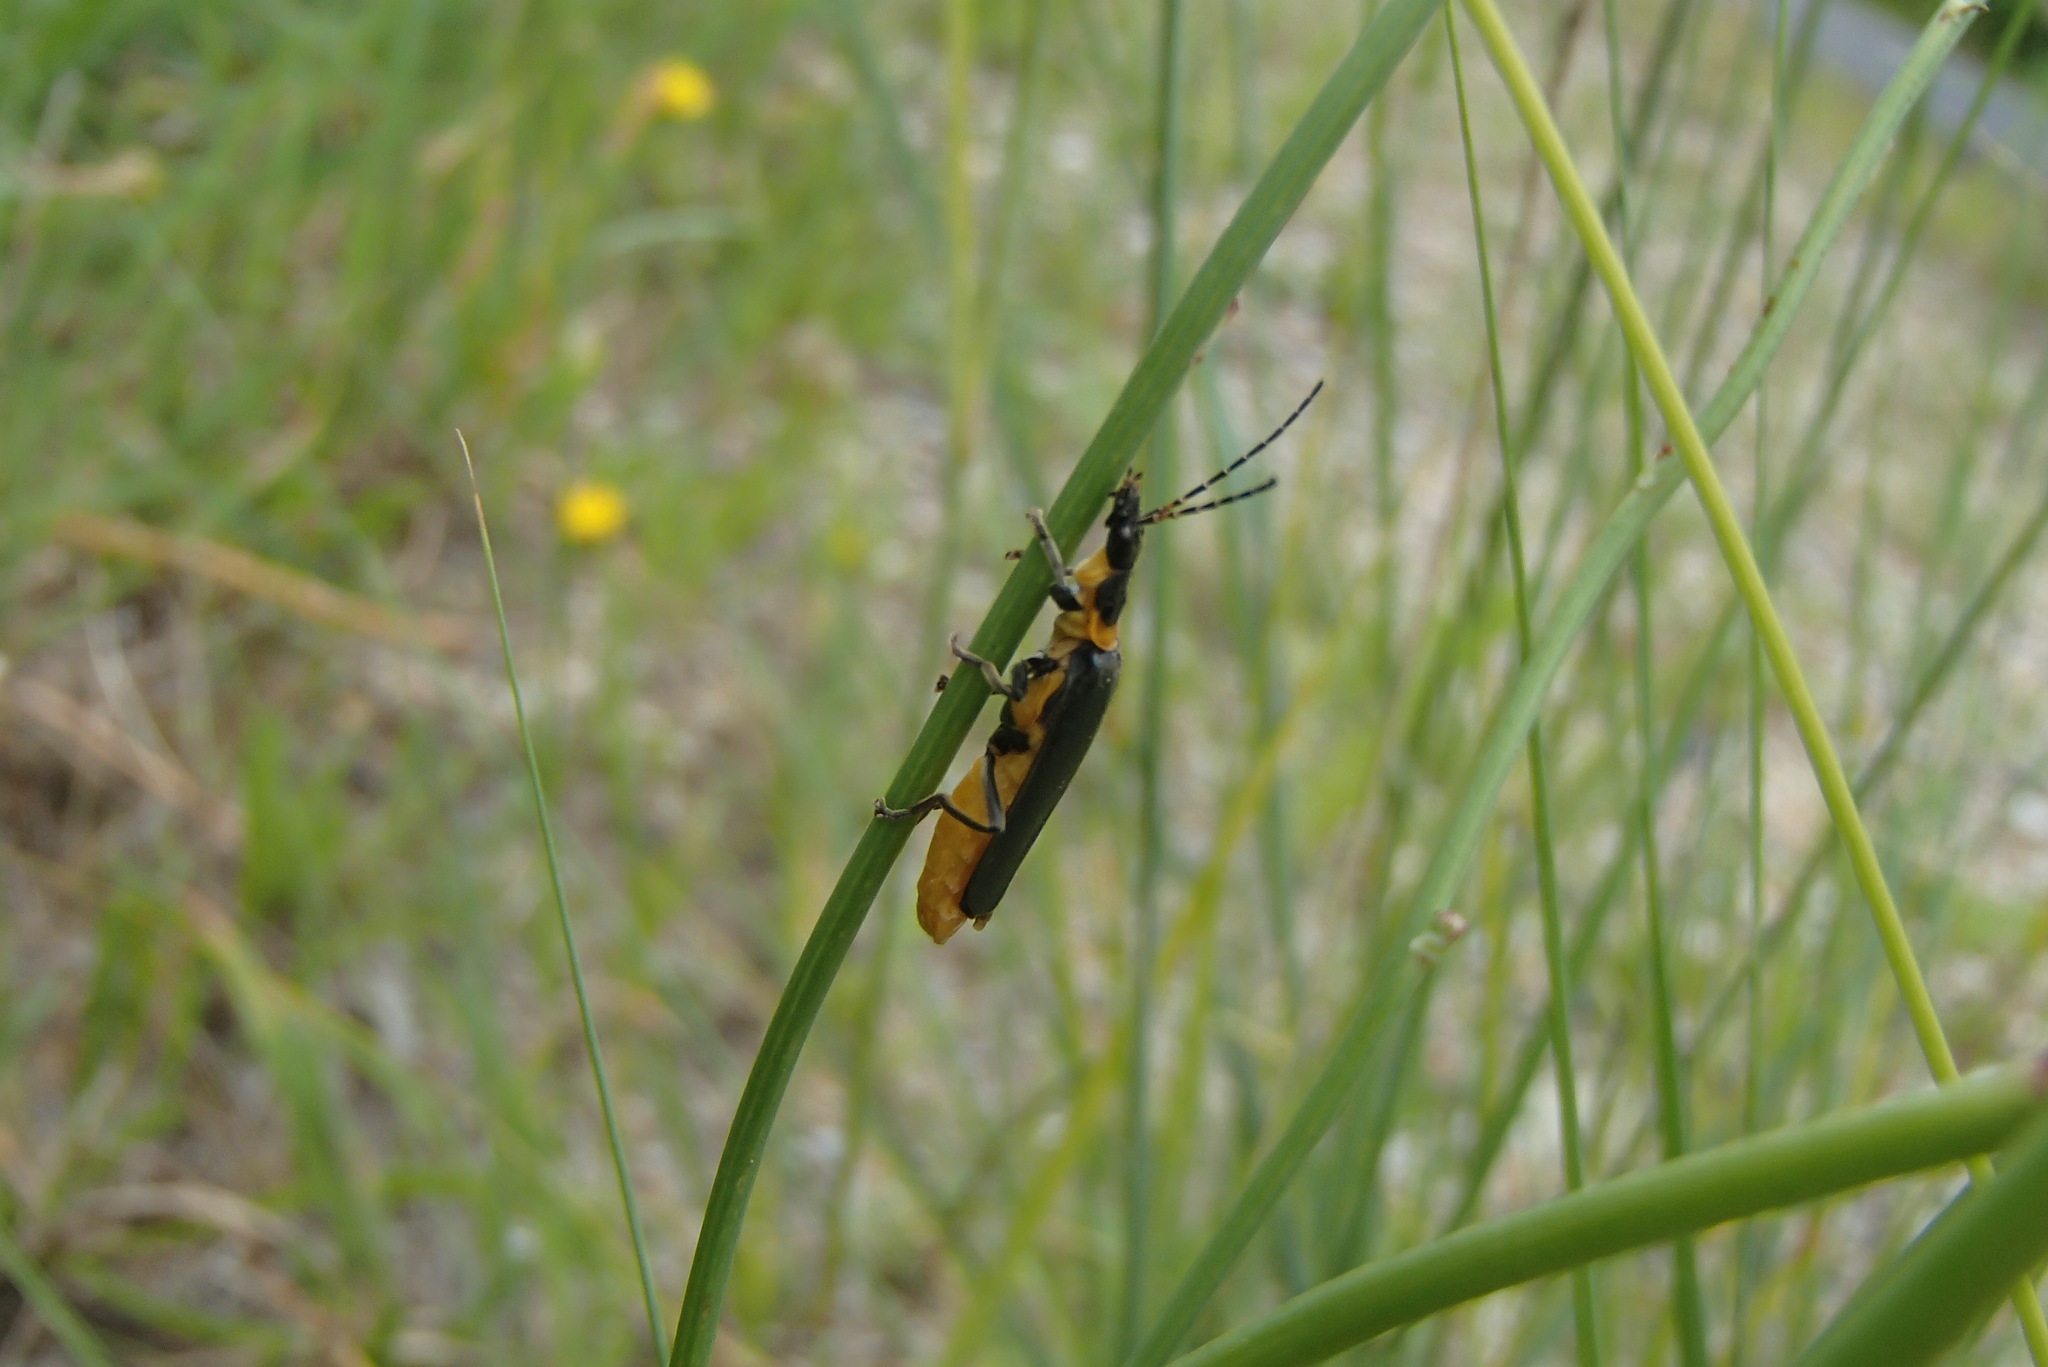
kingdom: Animalia
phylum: Arthropoda
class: Insecta
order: Coleoptera
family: Cantharidae
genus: Chauliognathus
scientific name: Chauliognathus
